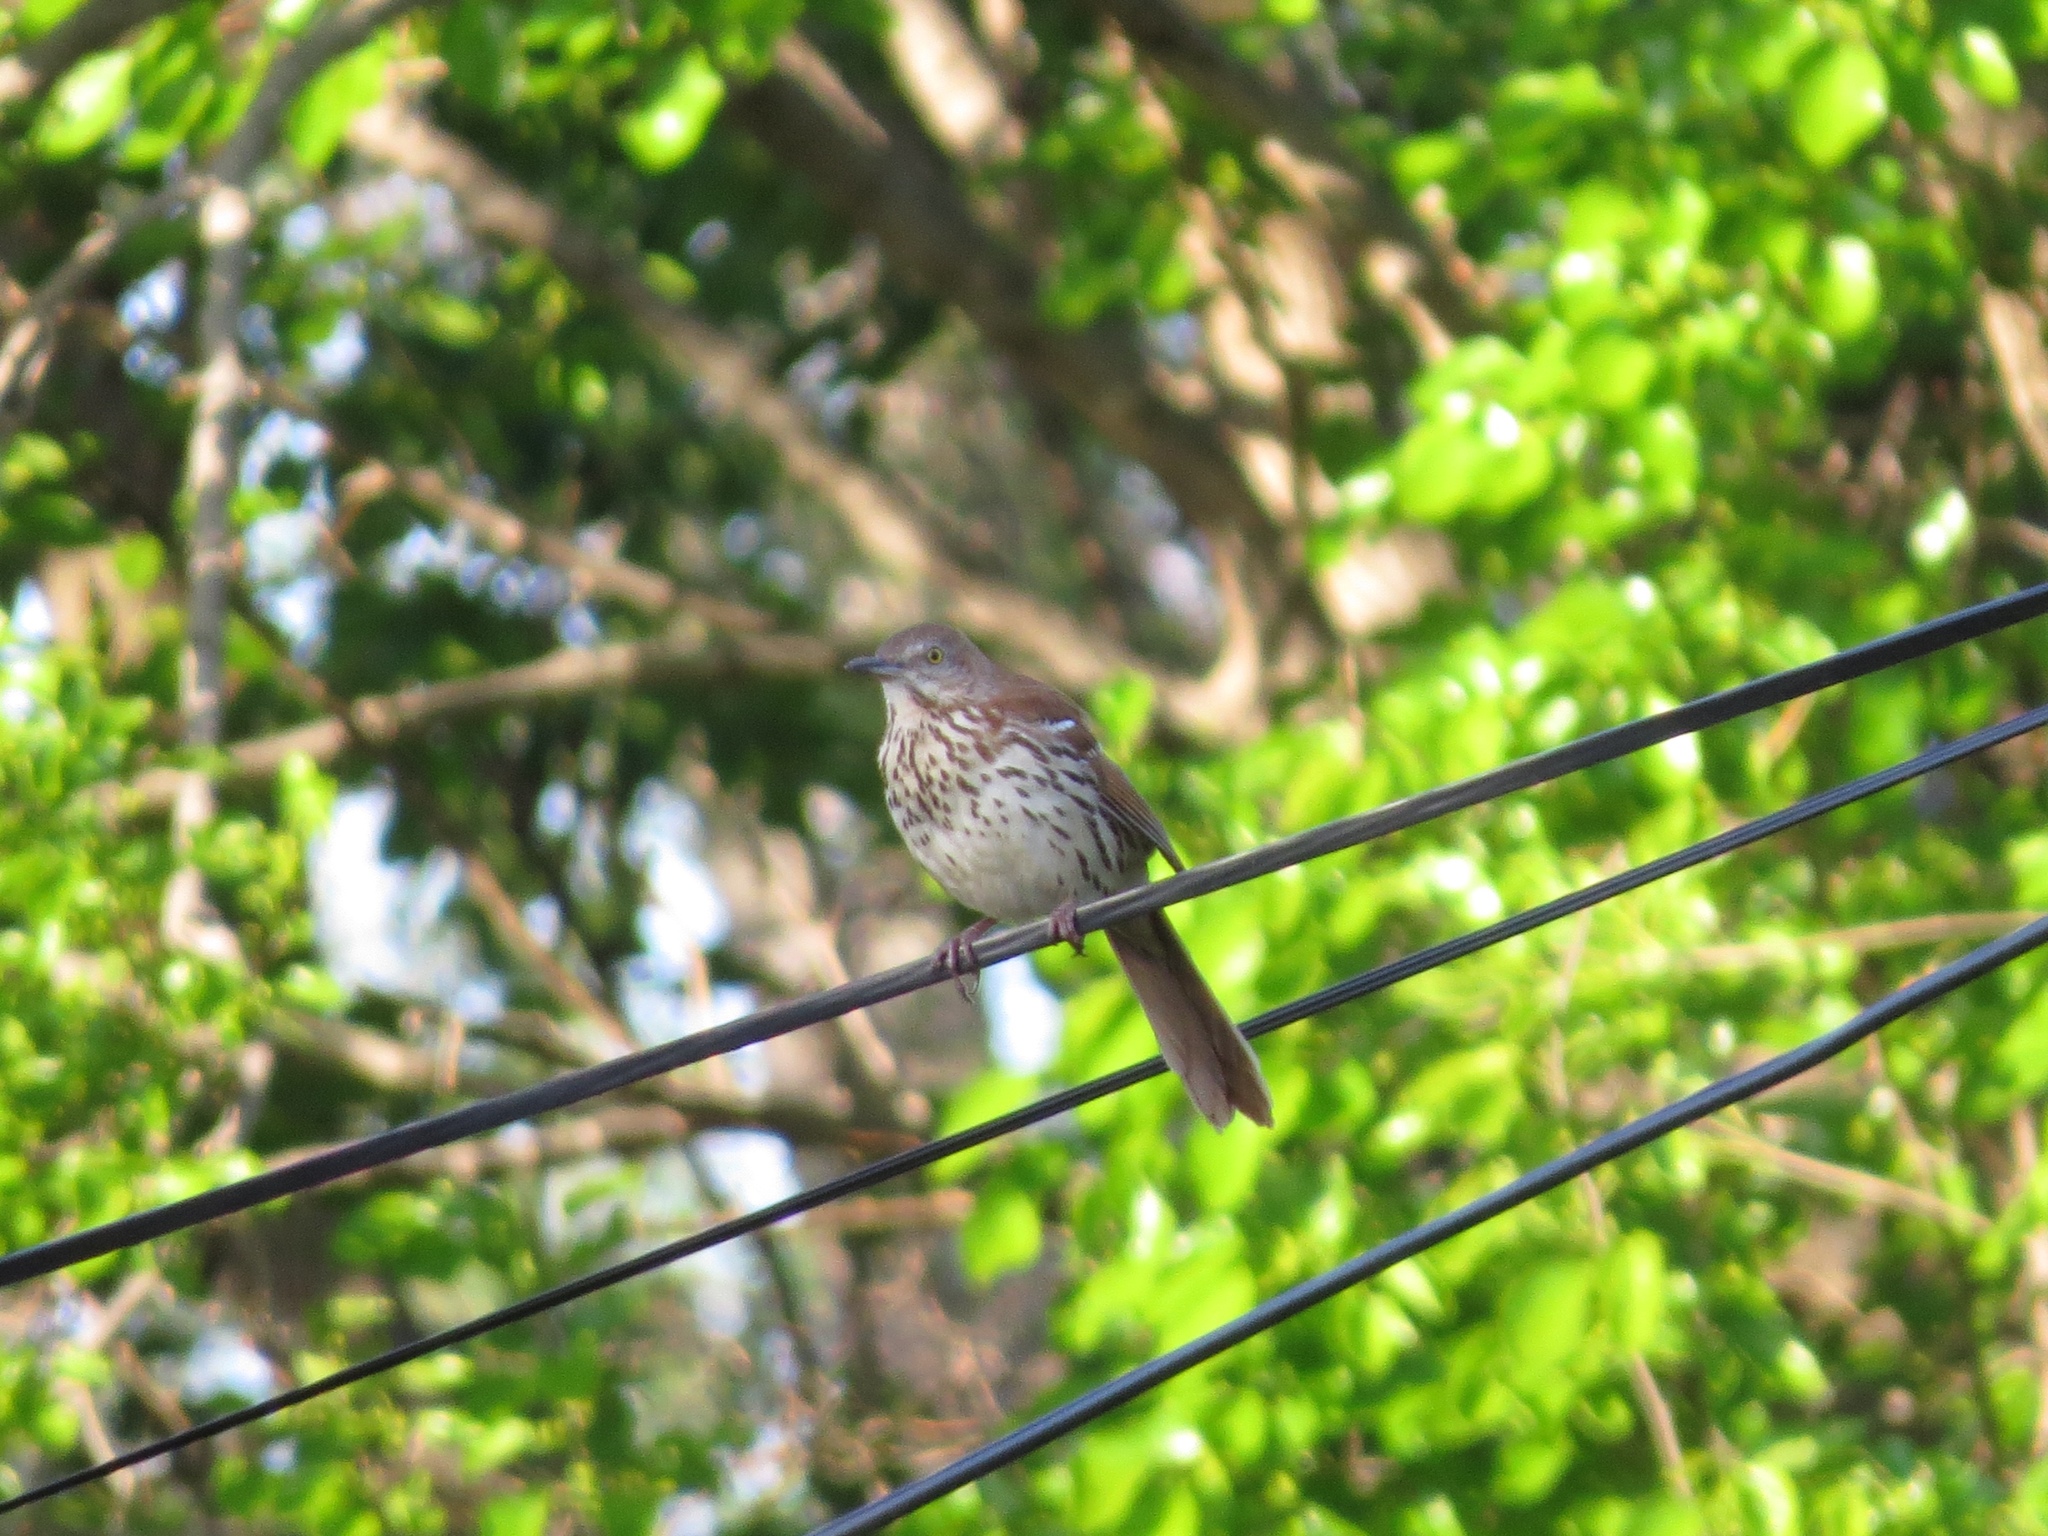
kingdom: Animalia
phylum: Chordata
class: Aves
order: Passeriformes
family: Mimidae
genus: Toxostoma
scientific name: Toxostoma rufum
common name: Brown thrasher
